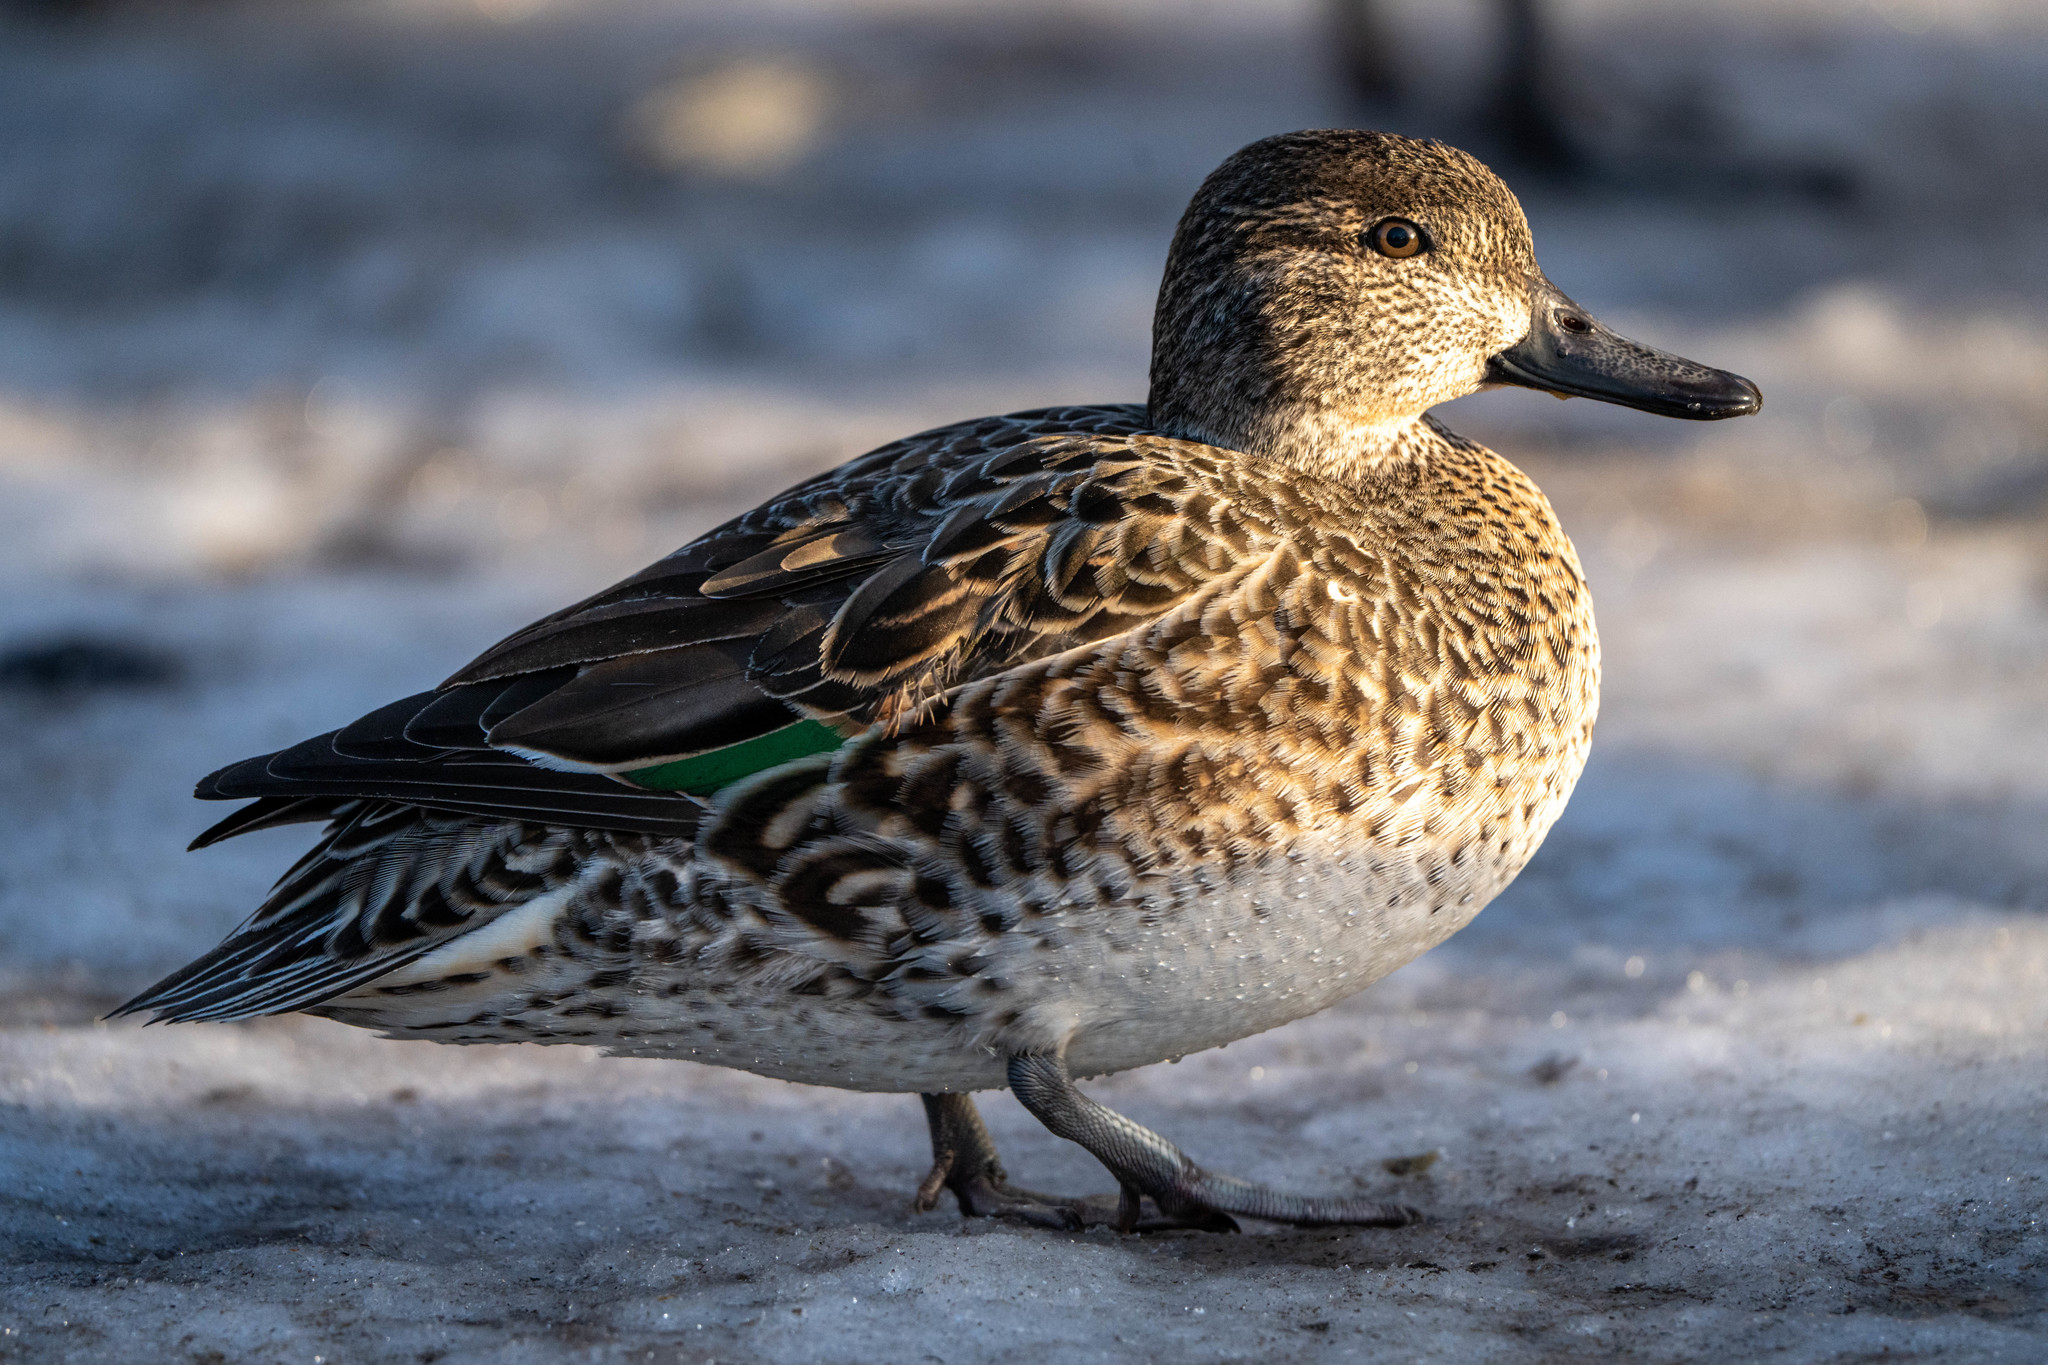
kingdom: Animalia
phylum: Chordata
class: Aves
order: Anseriformes
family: Anatidae
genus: Anas
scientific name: Anas carolinensis
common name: Green-winged teal
